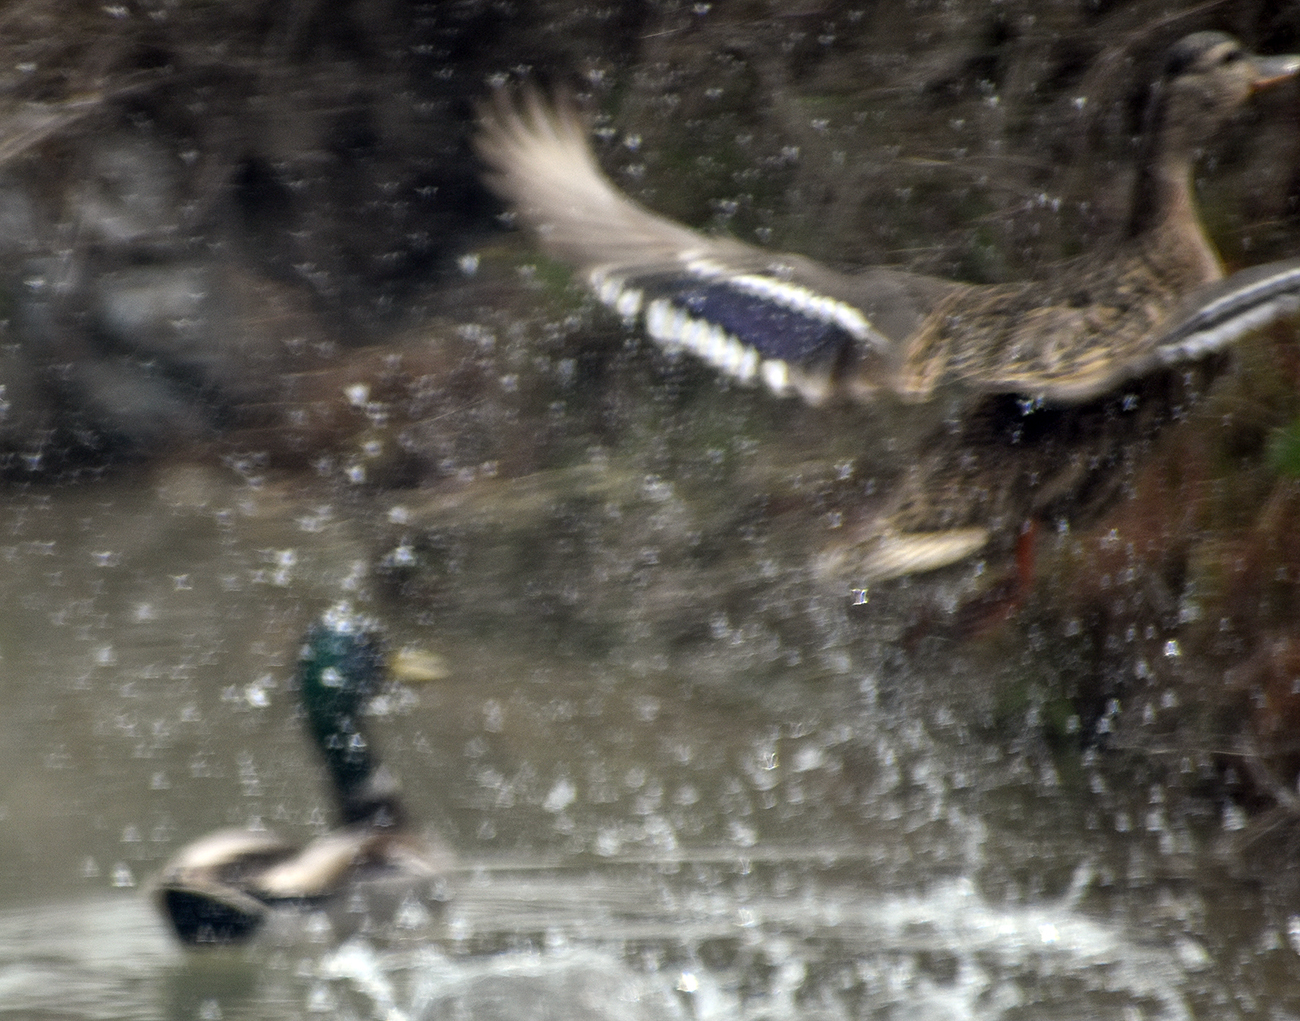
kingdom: Animalia
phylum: Chordata
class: Aves
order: Anseriformes
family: Anatidae
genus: Anas
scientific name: Anas platyrhynchos
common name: Mallard
